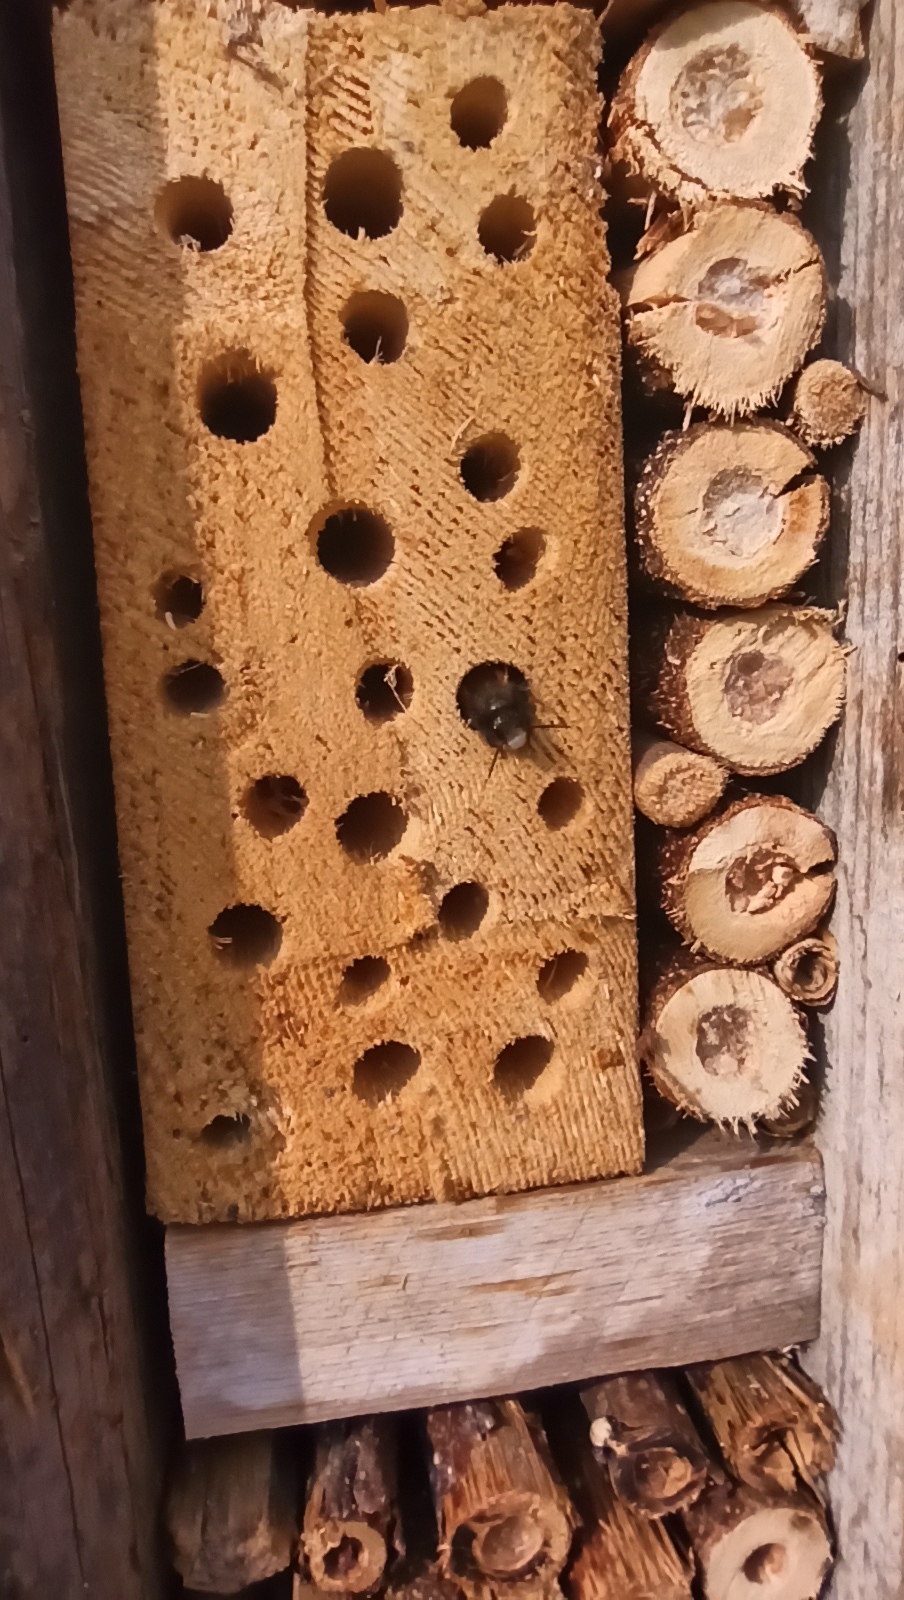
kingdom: Animalia
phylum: Arthropoda
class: Insecta
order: Hymenoptera
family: Megachilidae
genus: Osmia
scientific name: Osmia cornuta
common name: Mason bee
